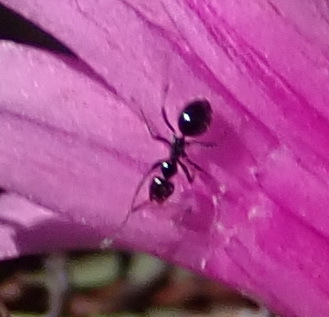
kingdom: Animalia
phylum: Arthropoda
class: Insecta
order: Hymenoptera
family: Formicidae
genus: Anoplolepis
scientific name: Anoplolepis steingroeveri
